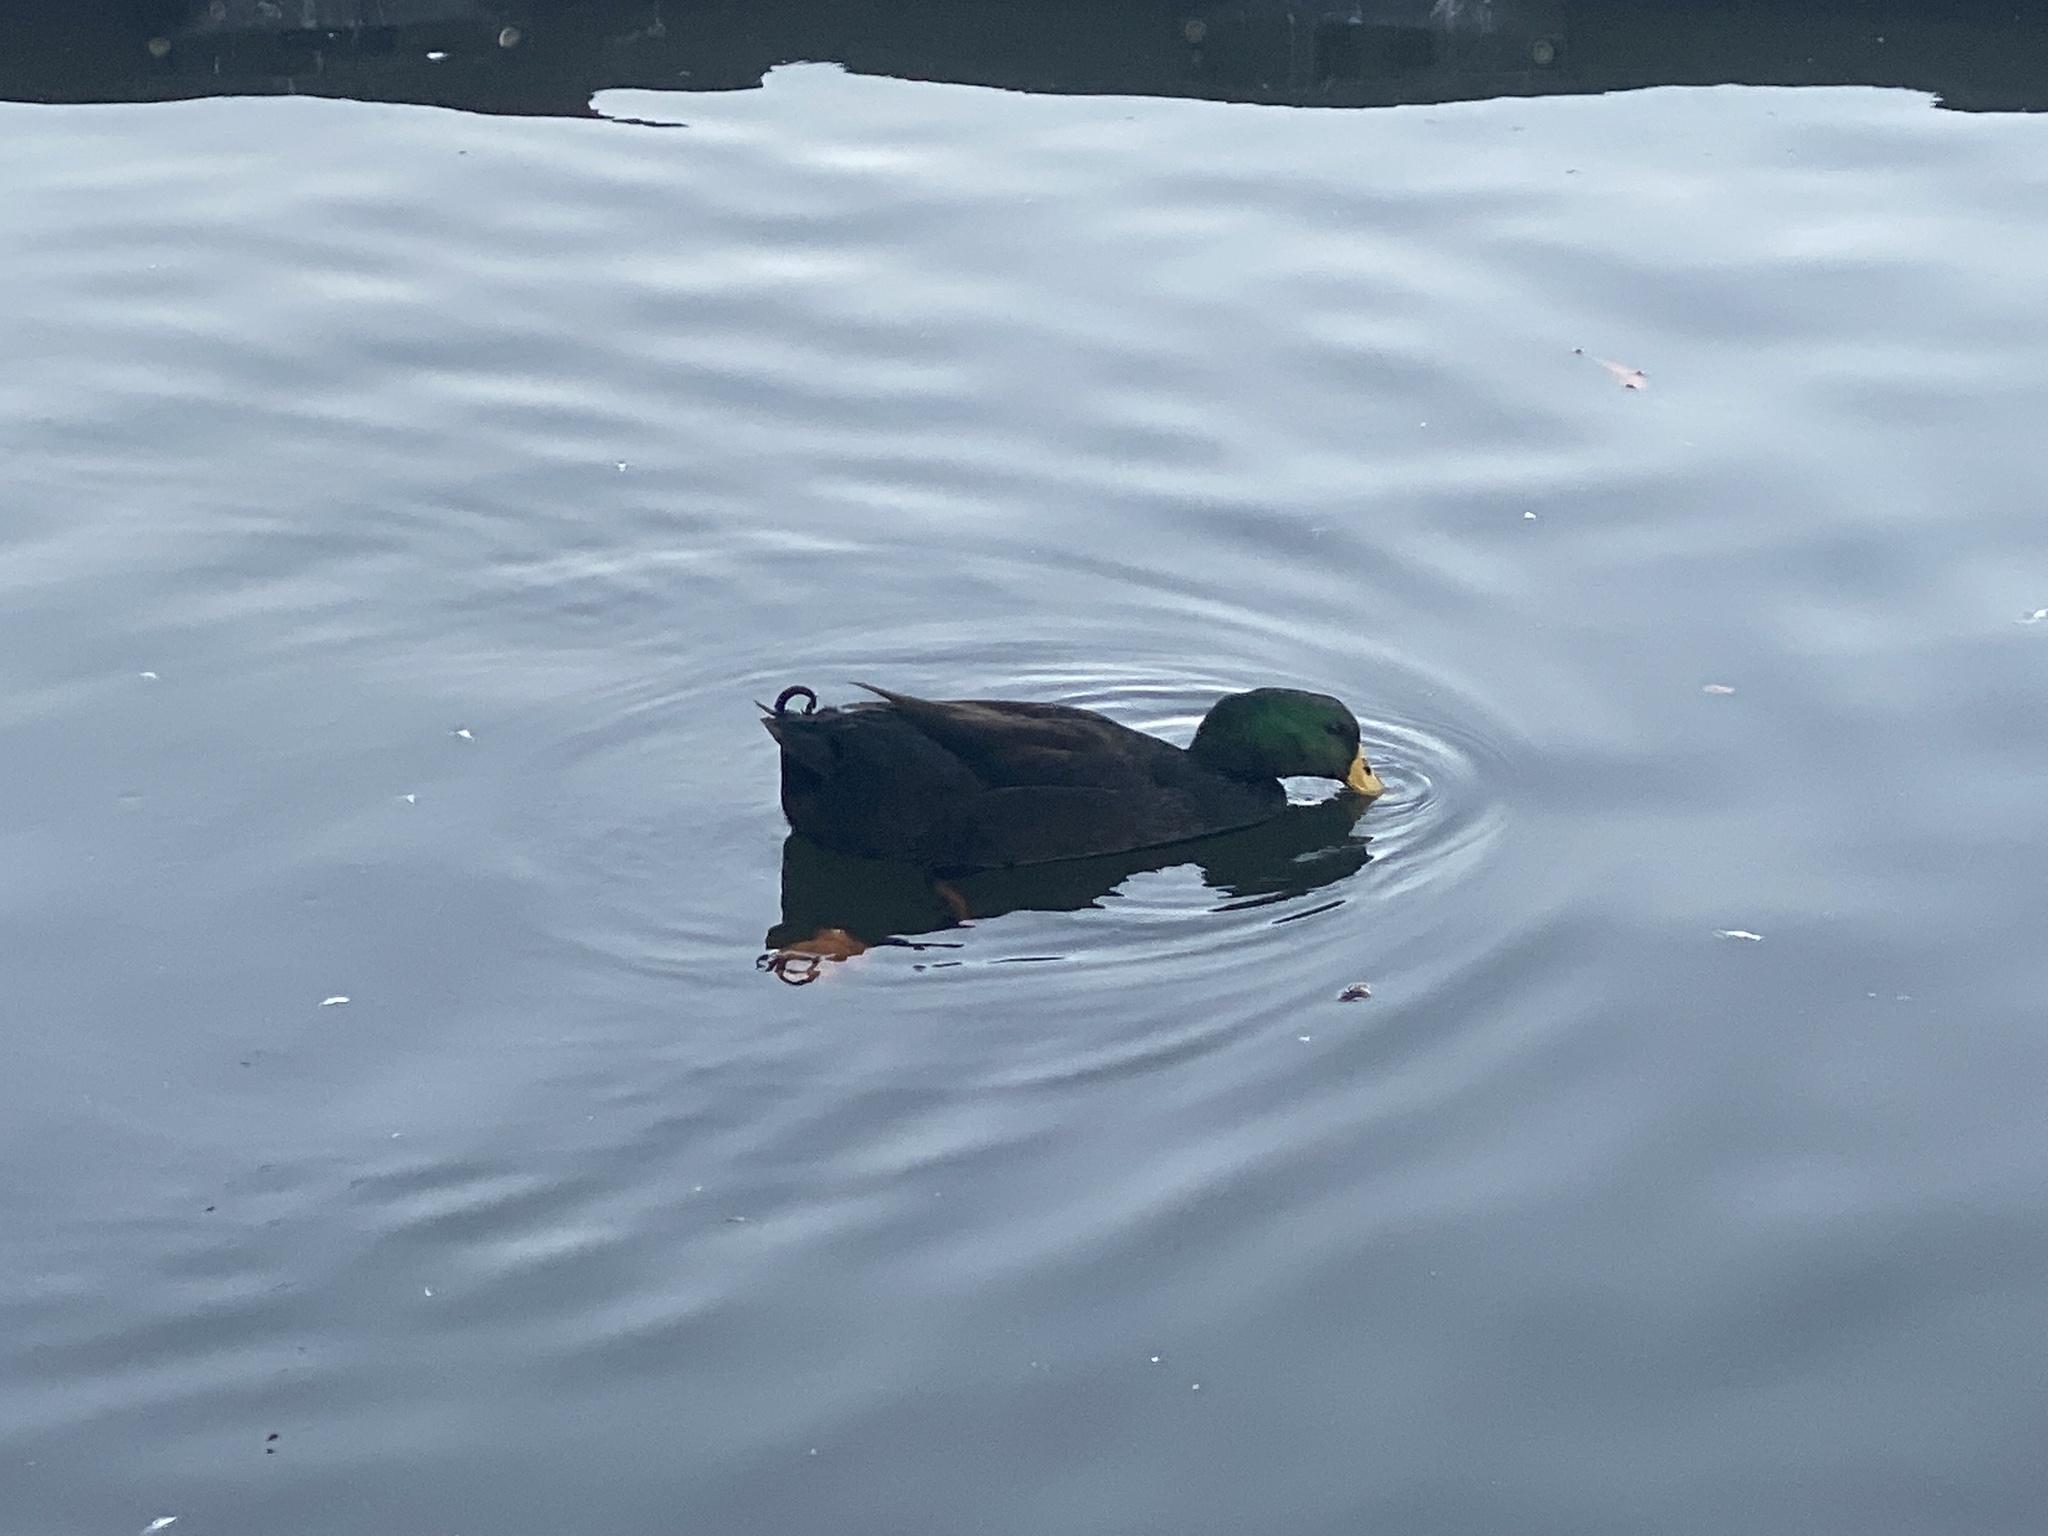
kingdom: Animalia
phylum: Chordata
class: Aves
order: Anseriformes
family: Anatidae
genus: Anas
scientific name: Anas platyrhynchos
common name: Mallard
